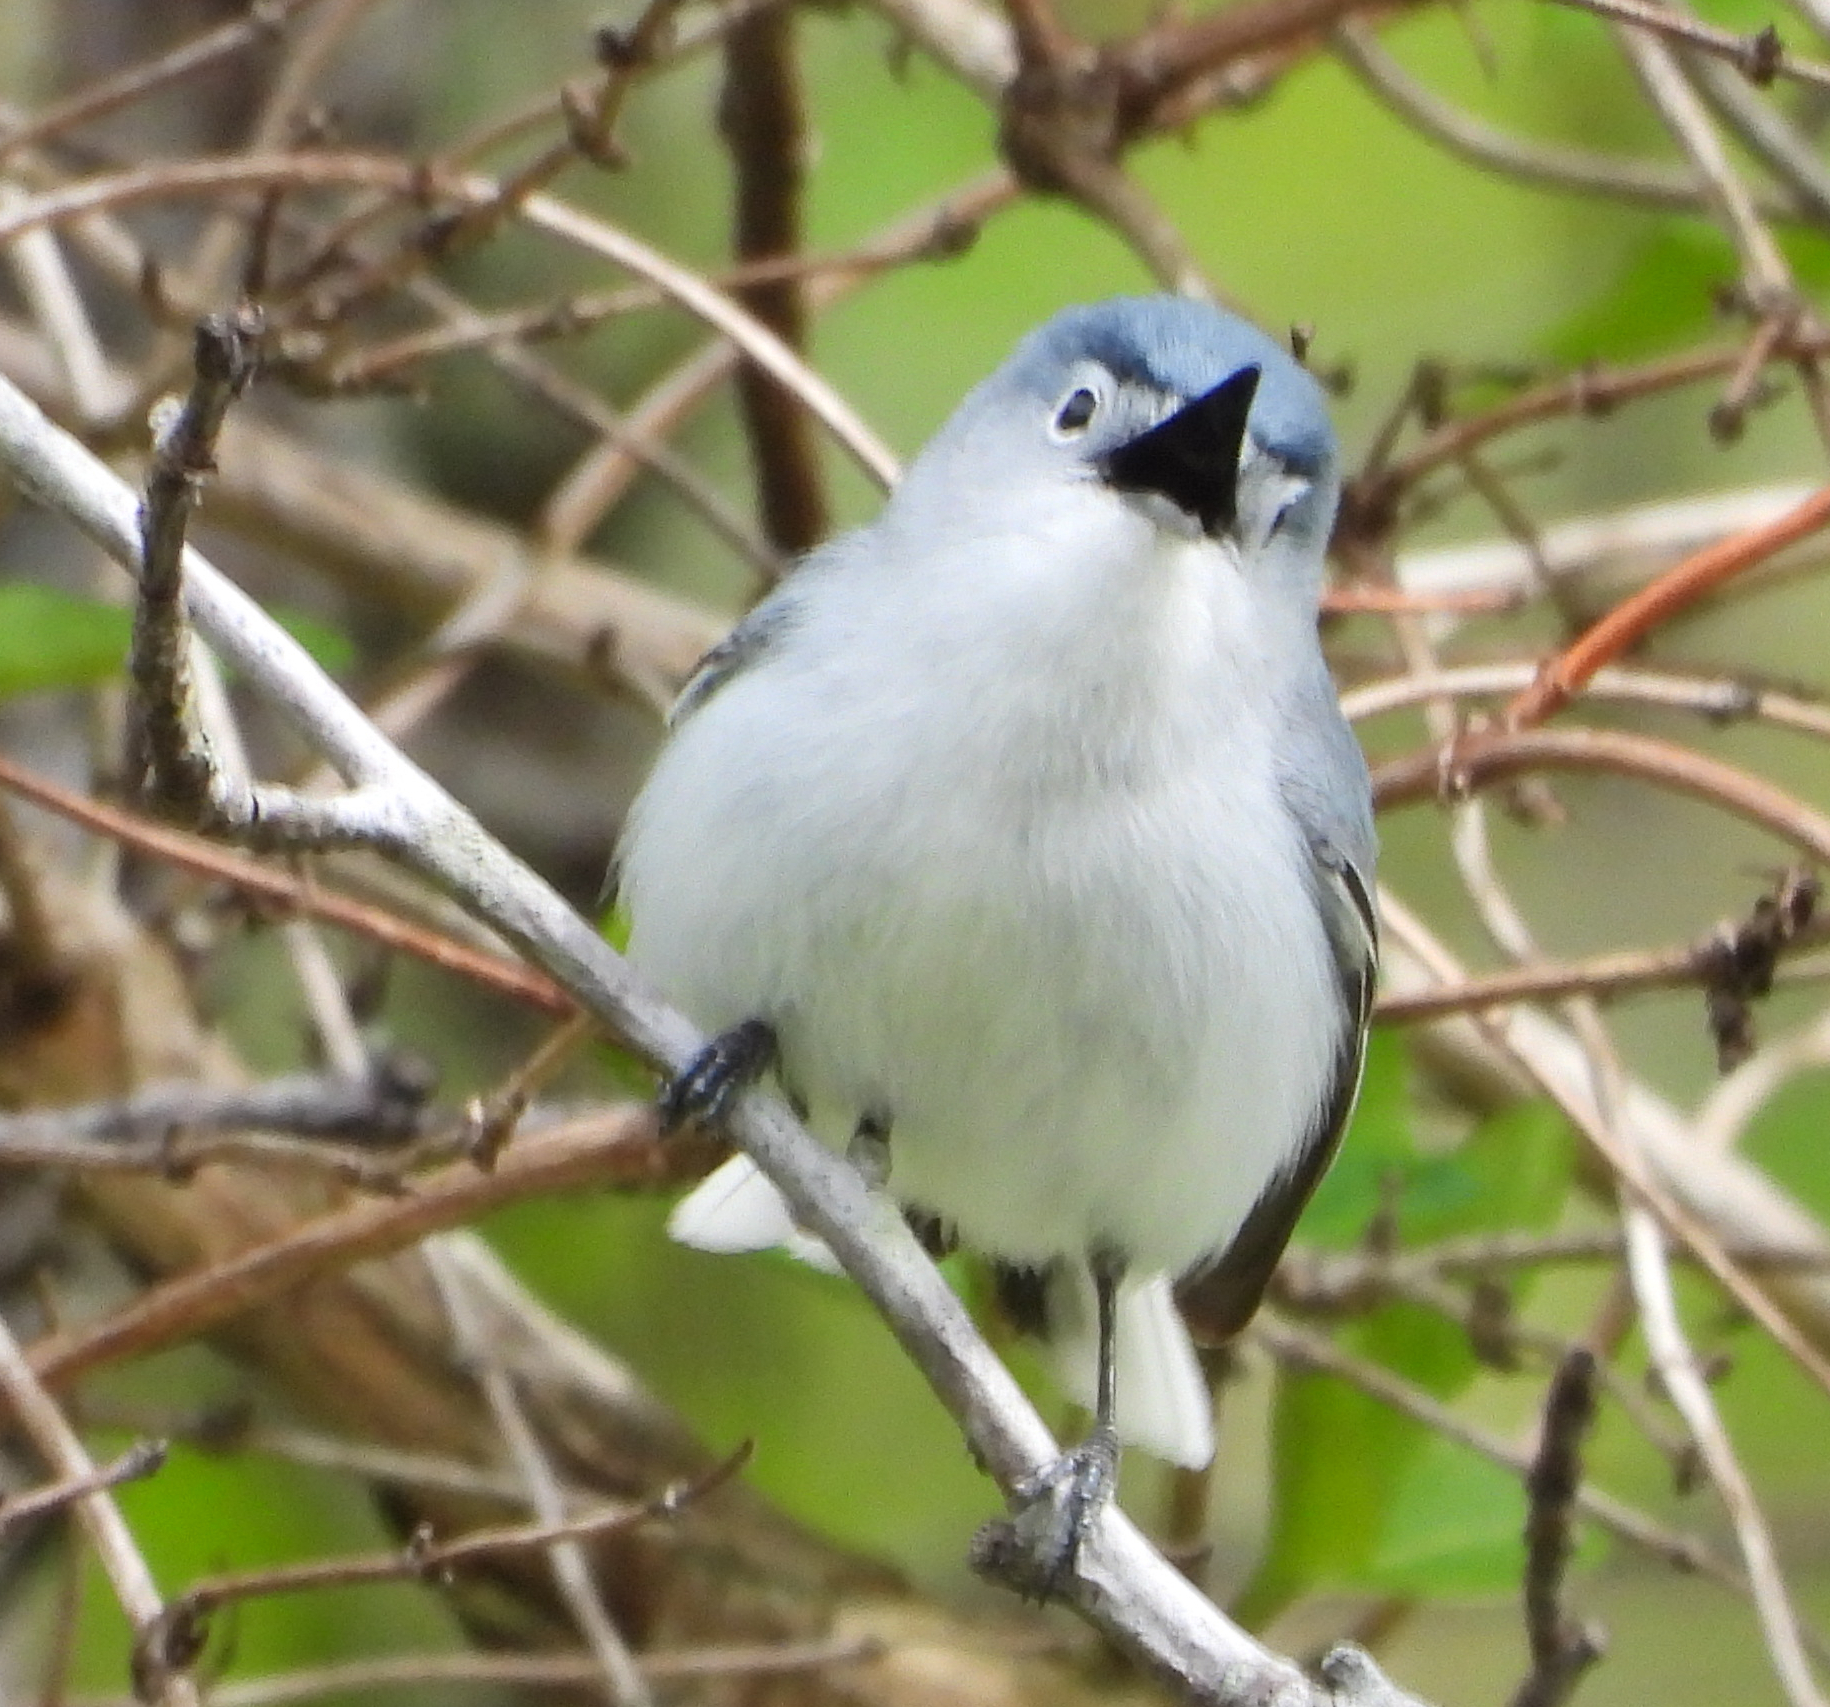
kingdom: Animalia
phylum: Chordata
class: Aves
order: Passeriformes
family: Polioptilidae
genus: Polioptila
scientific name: Polioptila caerulea
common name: Blue-gray gnatcatcher
